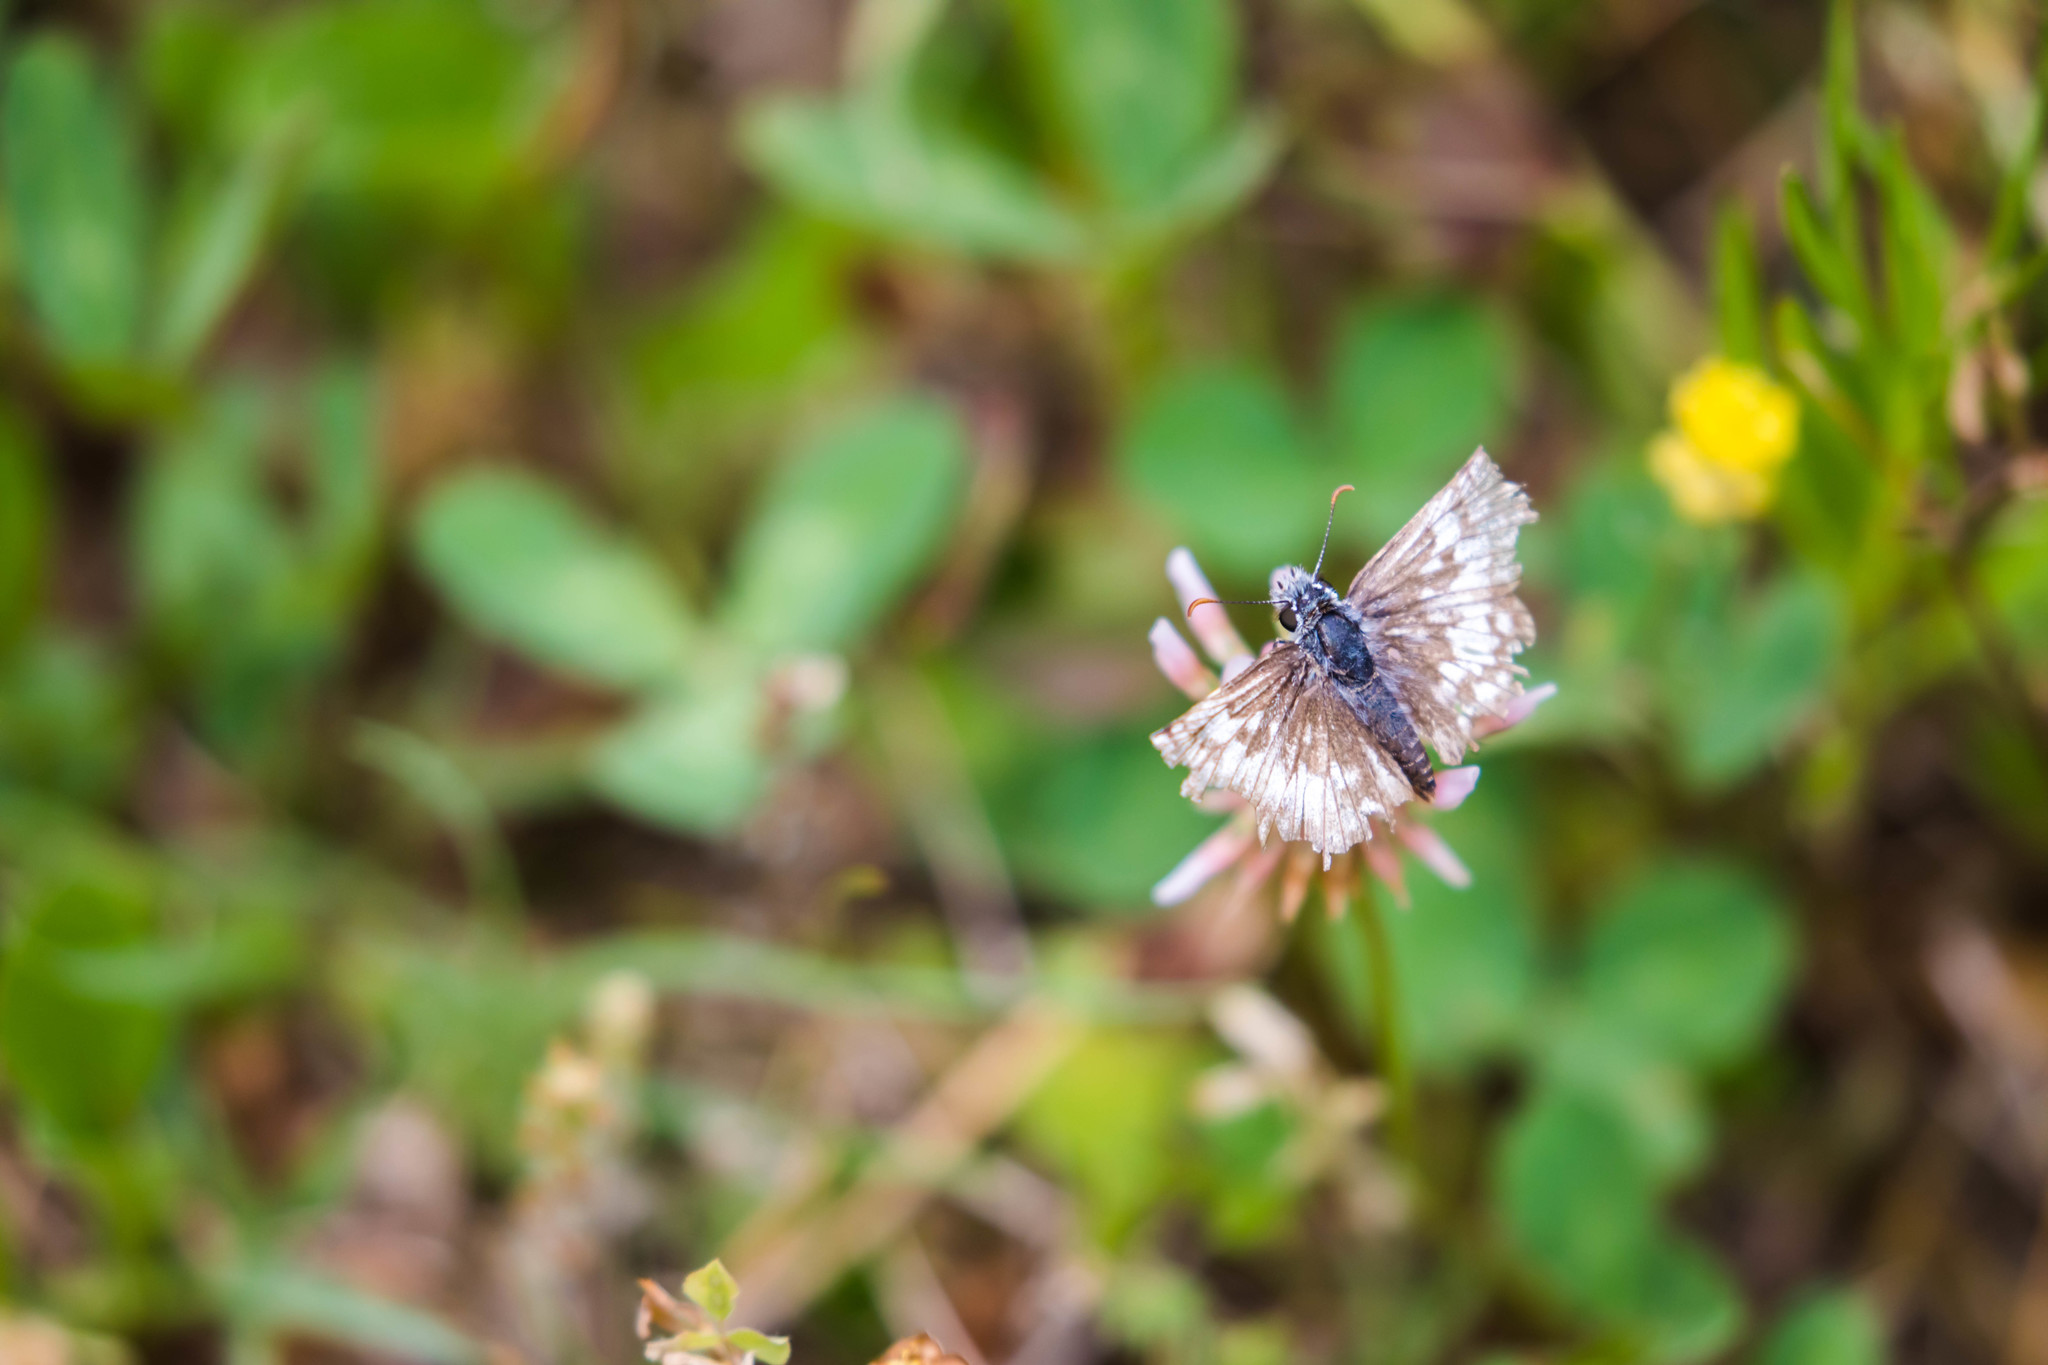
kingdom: Animalia
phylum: Arthropoda
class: Insecta
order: Lepidoptera
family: Hesperiidae
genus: Burnsius
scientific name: Burnsius communis
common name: Common checkered-skipper
